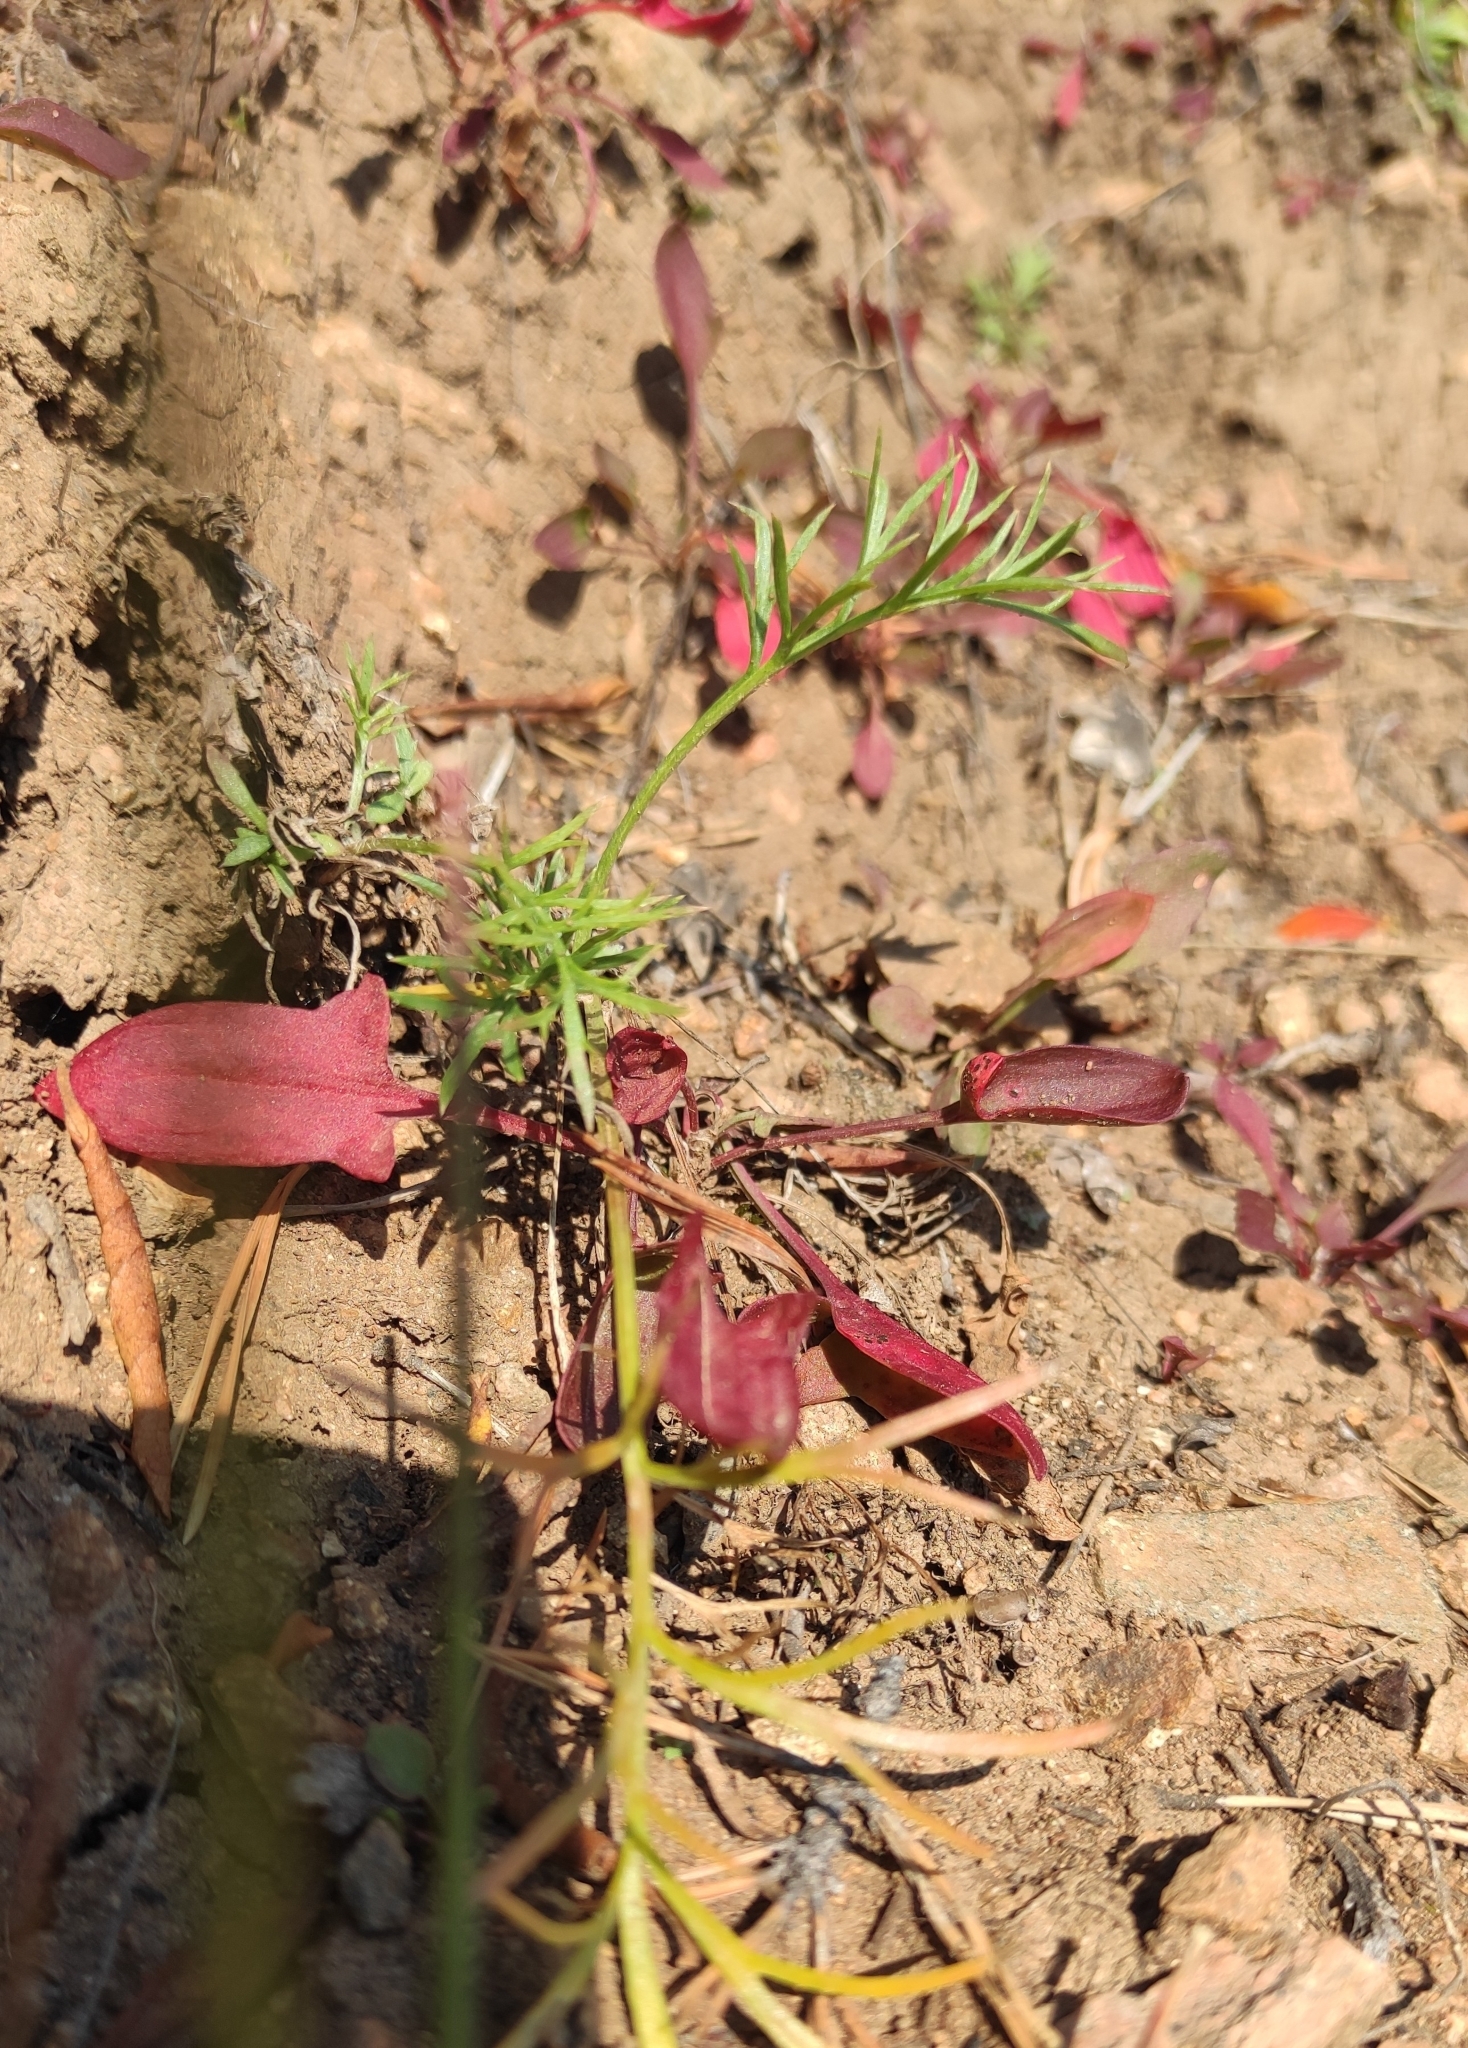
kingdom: Plantae
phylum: Tracheophyta
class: Magnoliopsida
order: Caryophyllales
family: Polygonaceae
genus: Rumex
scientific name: Rumex acetosella
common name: Common sheep sorrel
